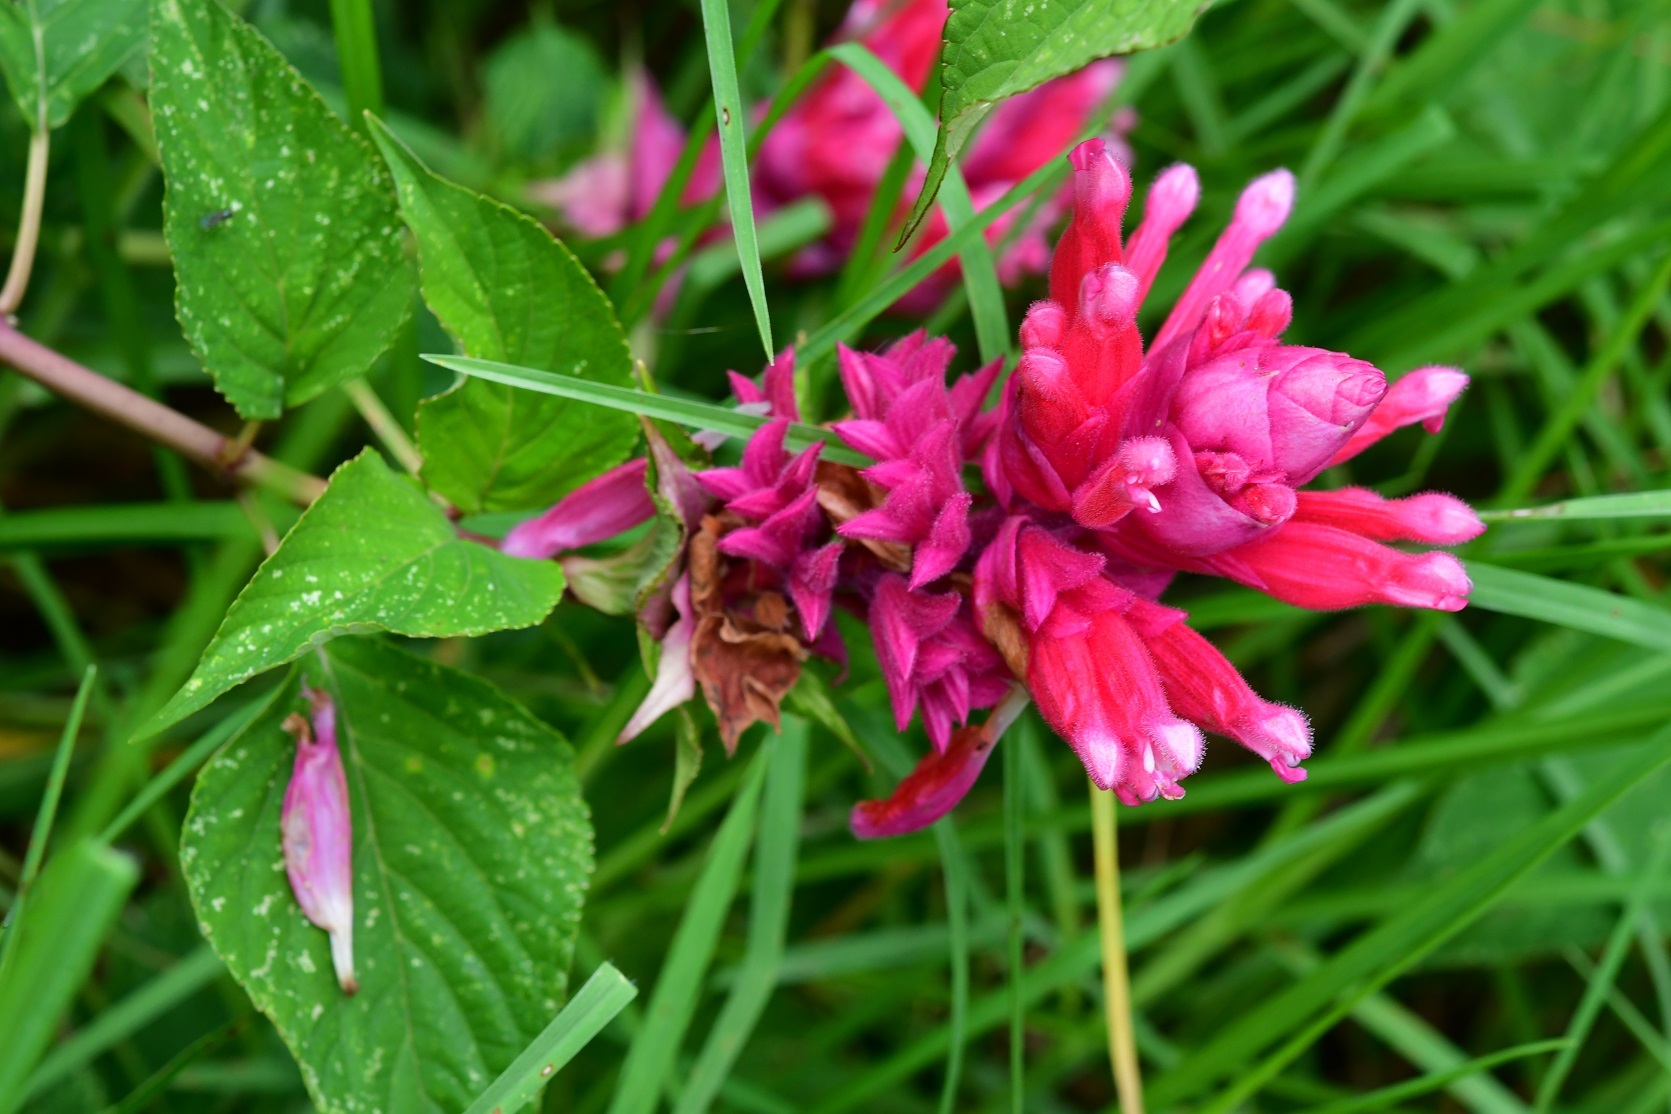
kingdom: Plantae
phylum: Tracheophyta
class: Magnoliopsida
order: Lamiales
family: Lamiaceae
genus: Salvia
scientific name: Salvia wagneriana
